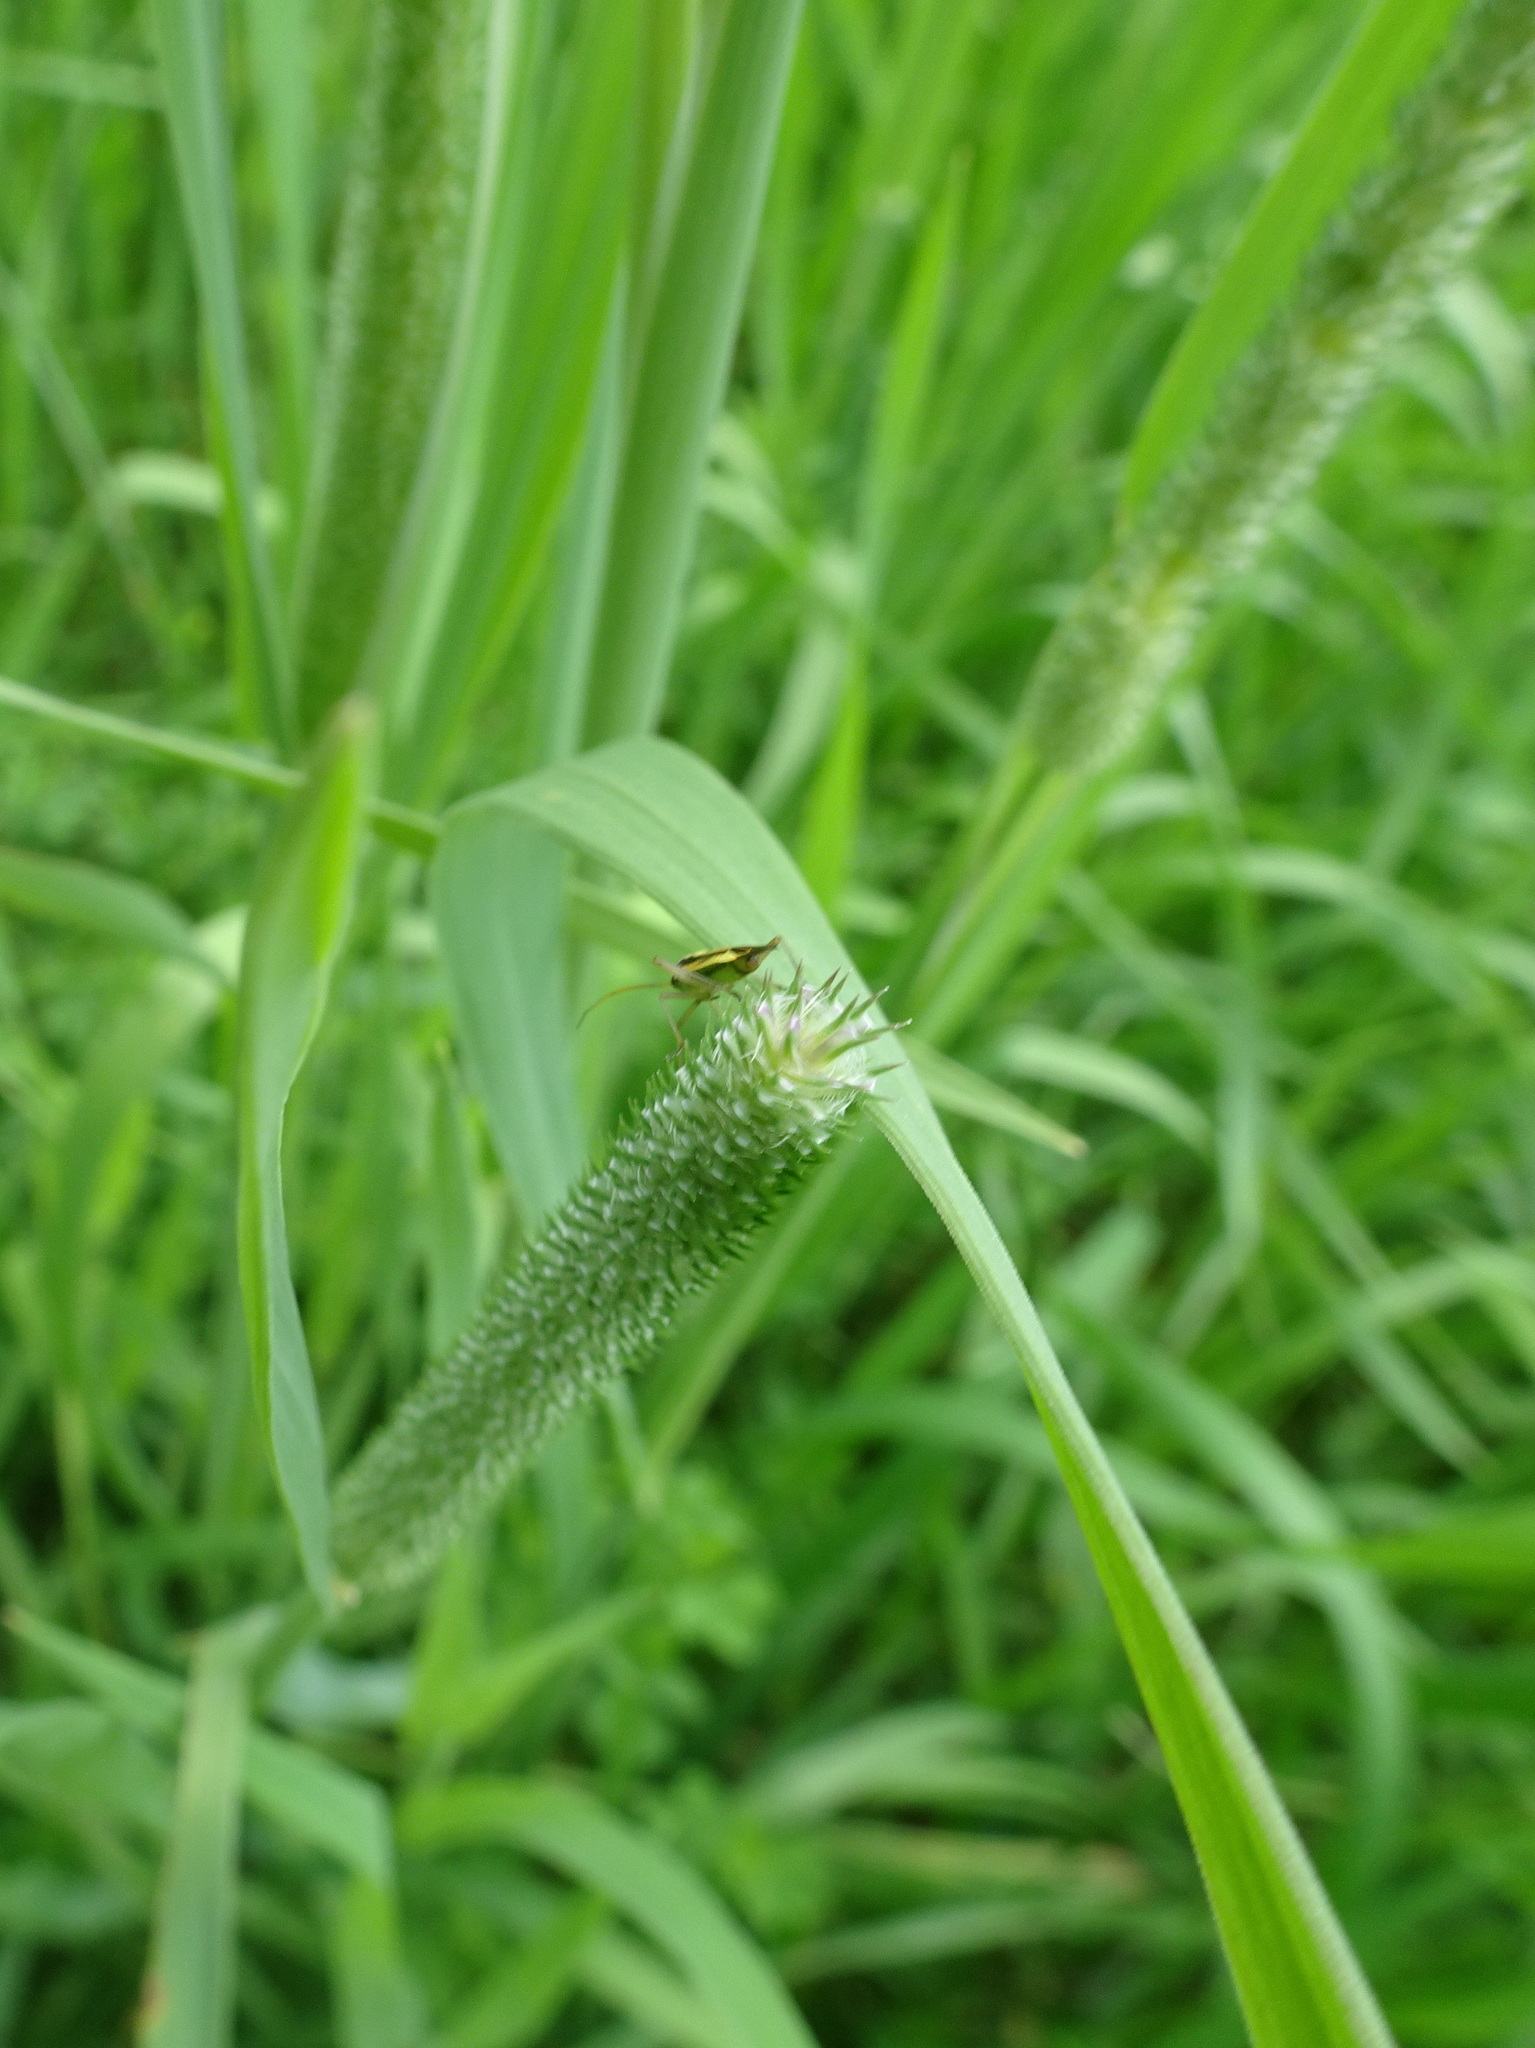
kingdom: Plantae
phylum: Tracheophyta
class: Liliopsida
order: Poales
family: Poaceae
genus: Phleum
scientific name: Phleum pratense
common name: Timothy grass
